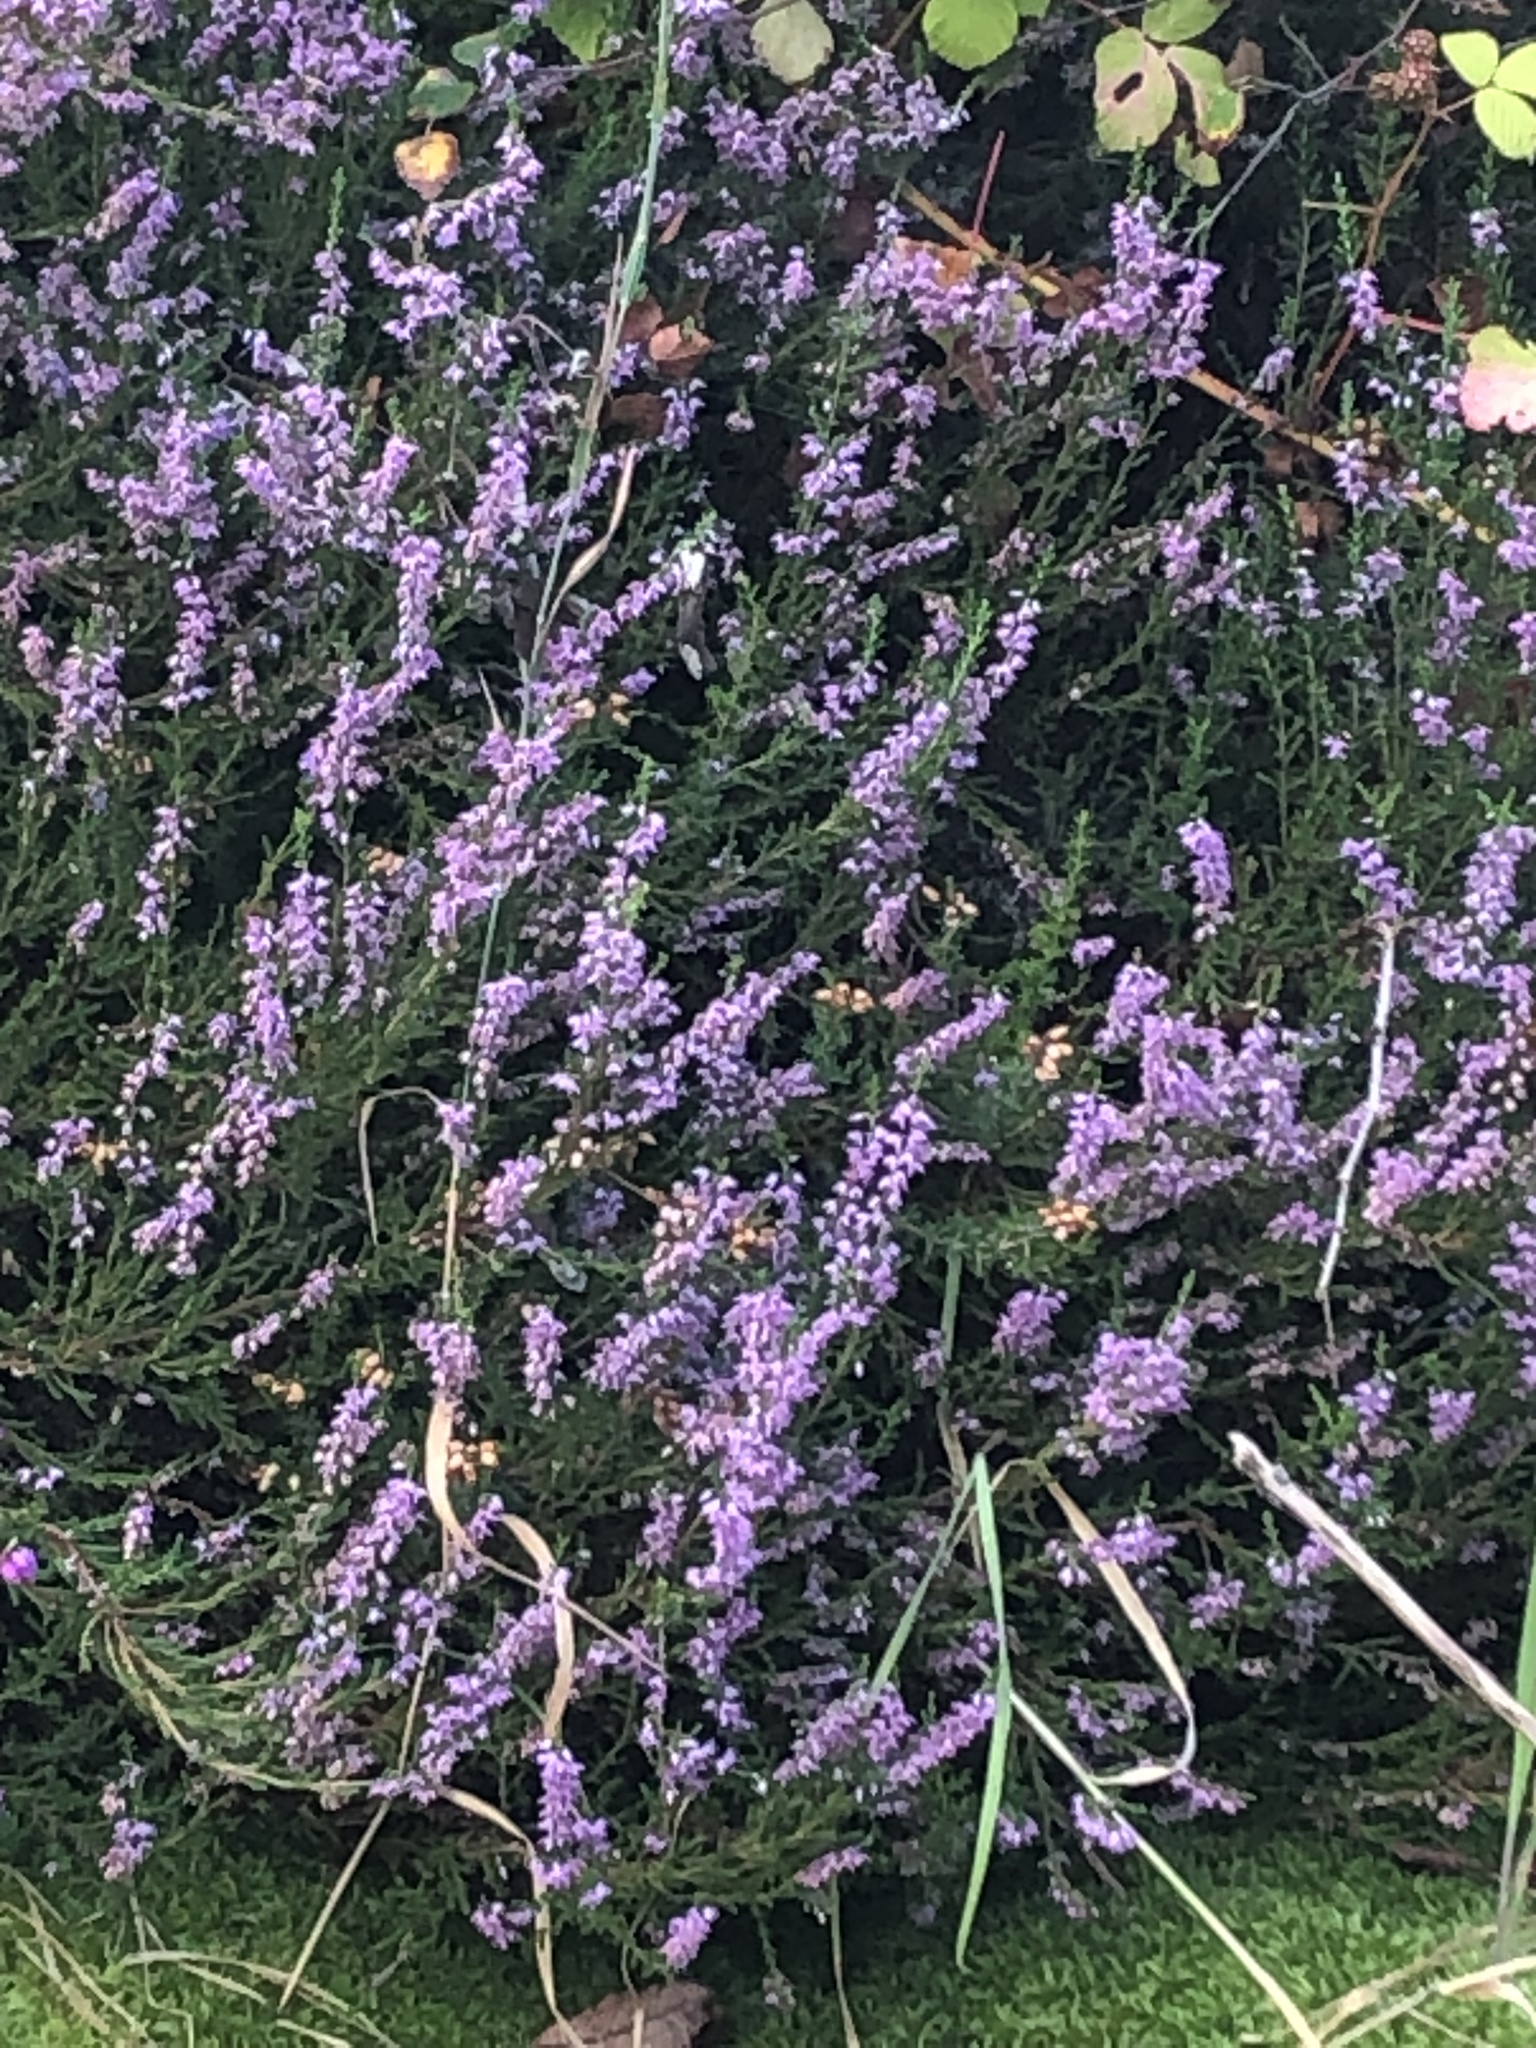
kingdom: Plantae
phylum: Tracheophyta
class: Magnoliopsida
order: Ericales
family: Ericaceae
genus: Calluna
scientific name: Calluna vulgaris
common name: Heather
